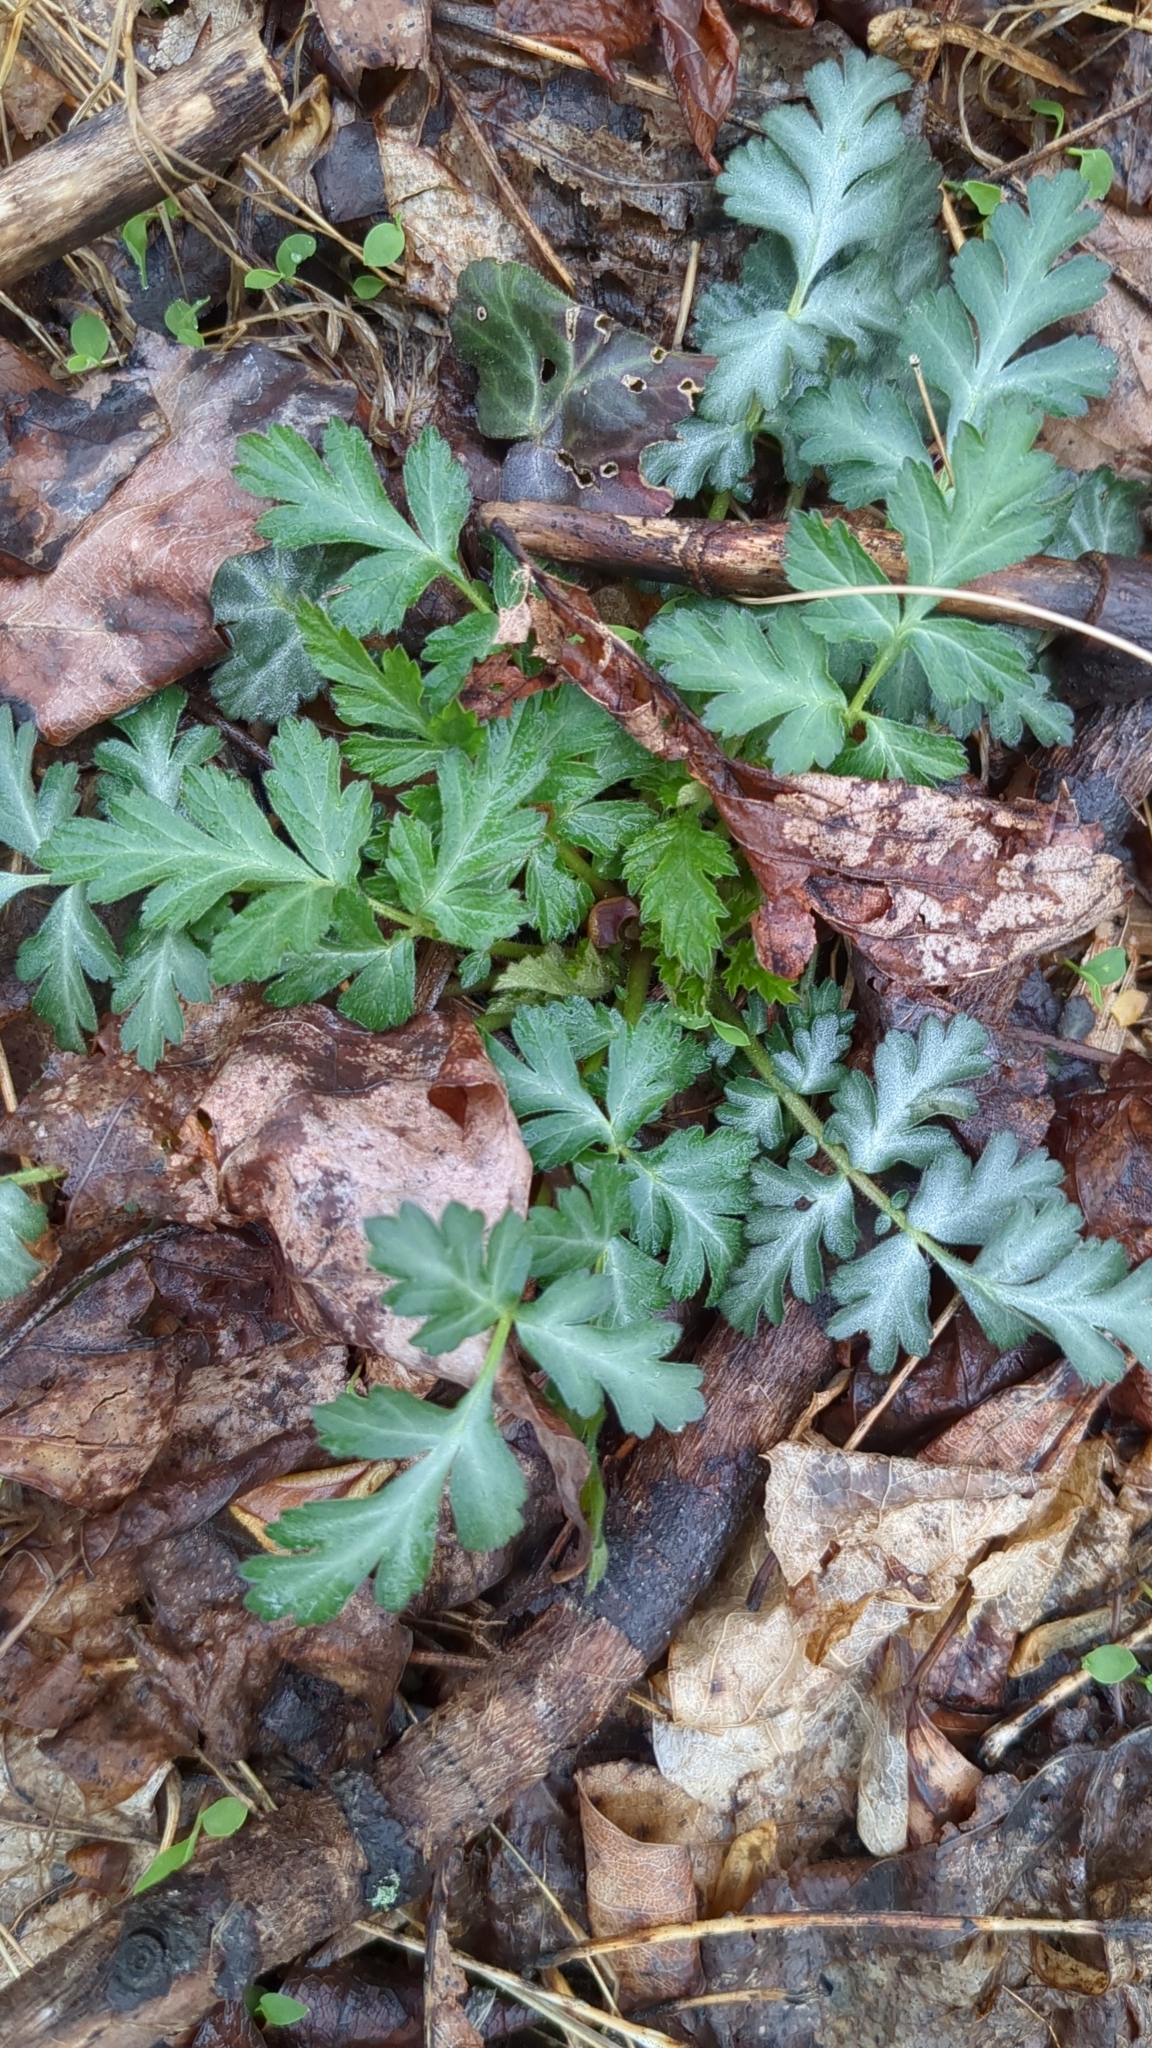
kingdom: Plantae
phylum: Tracheophyta
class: Magnoliopsida
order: Rosales
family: Rosaceae
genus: Geum
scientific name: Geum canadense
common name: White avens
